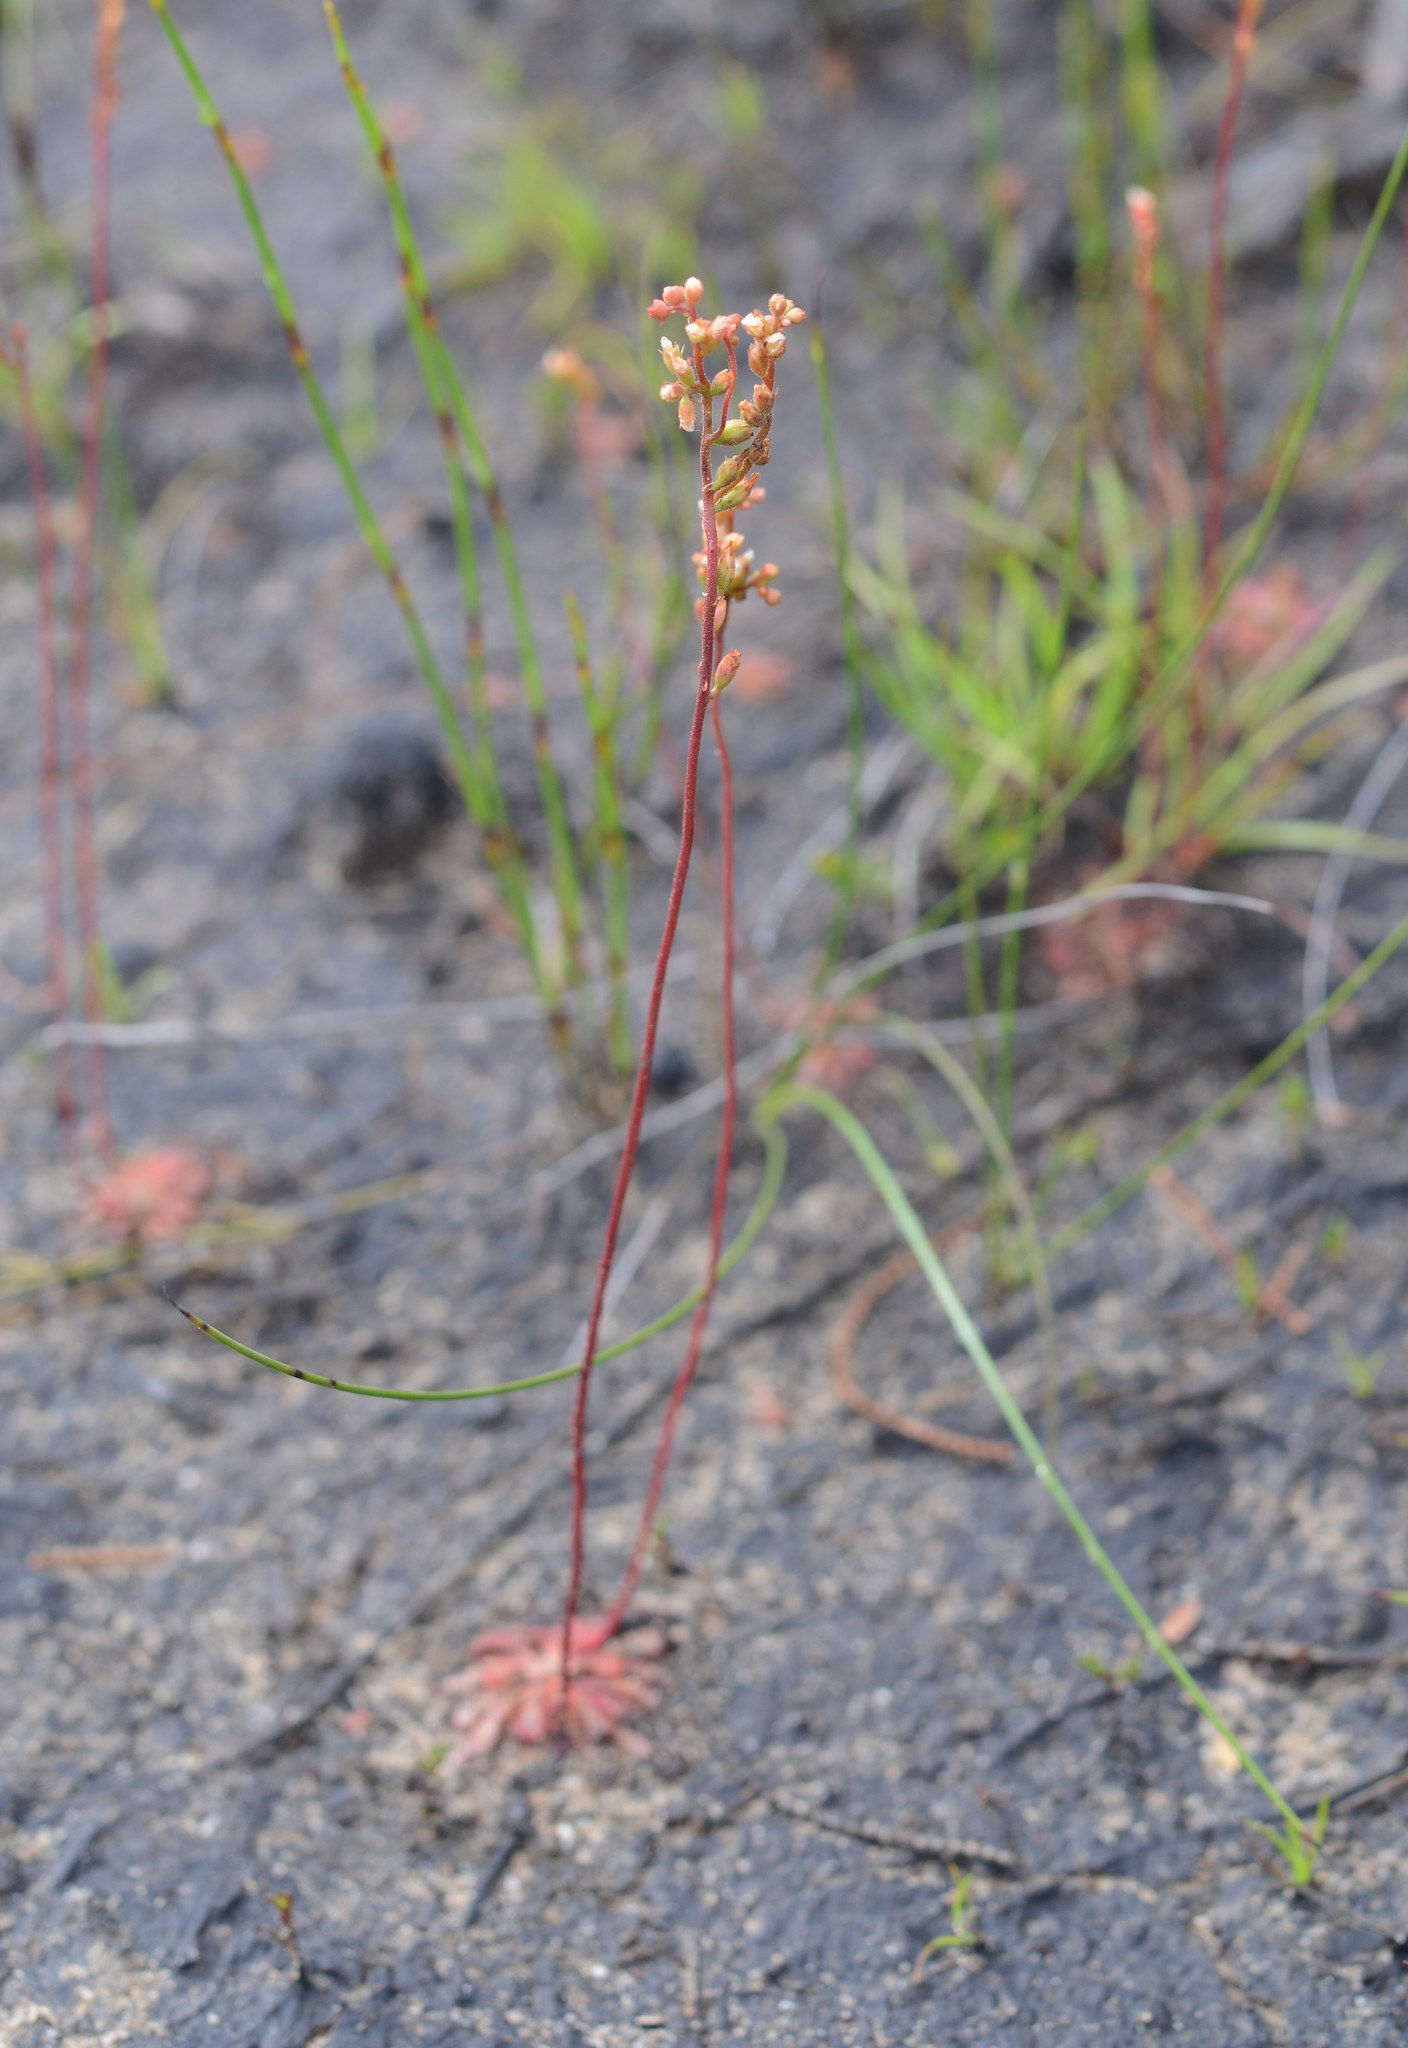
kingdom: Plantae
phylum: Tracheophyta
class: Magnoliopsida
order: Caryophyllales
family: Droseraceae
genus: Drosera
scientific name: Drosera spatulata
